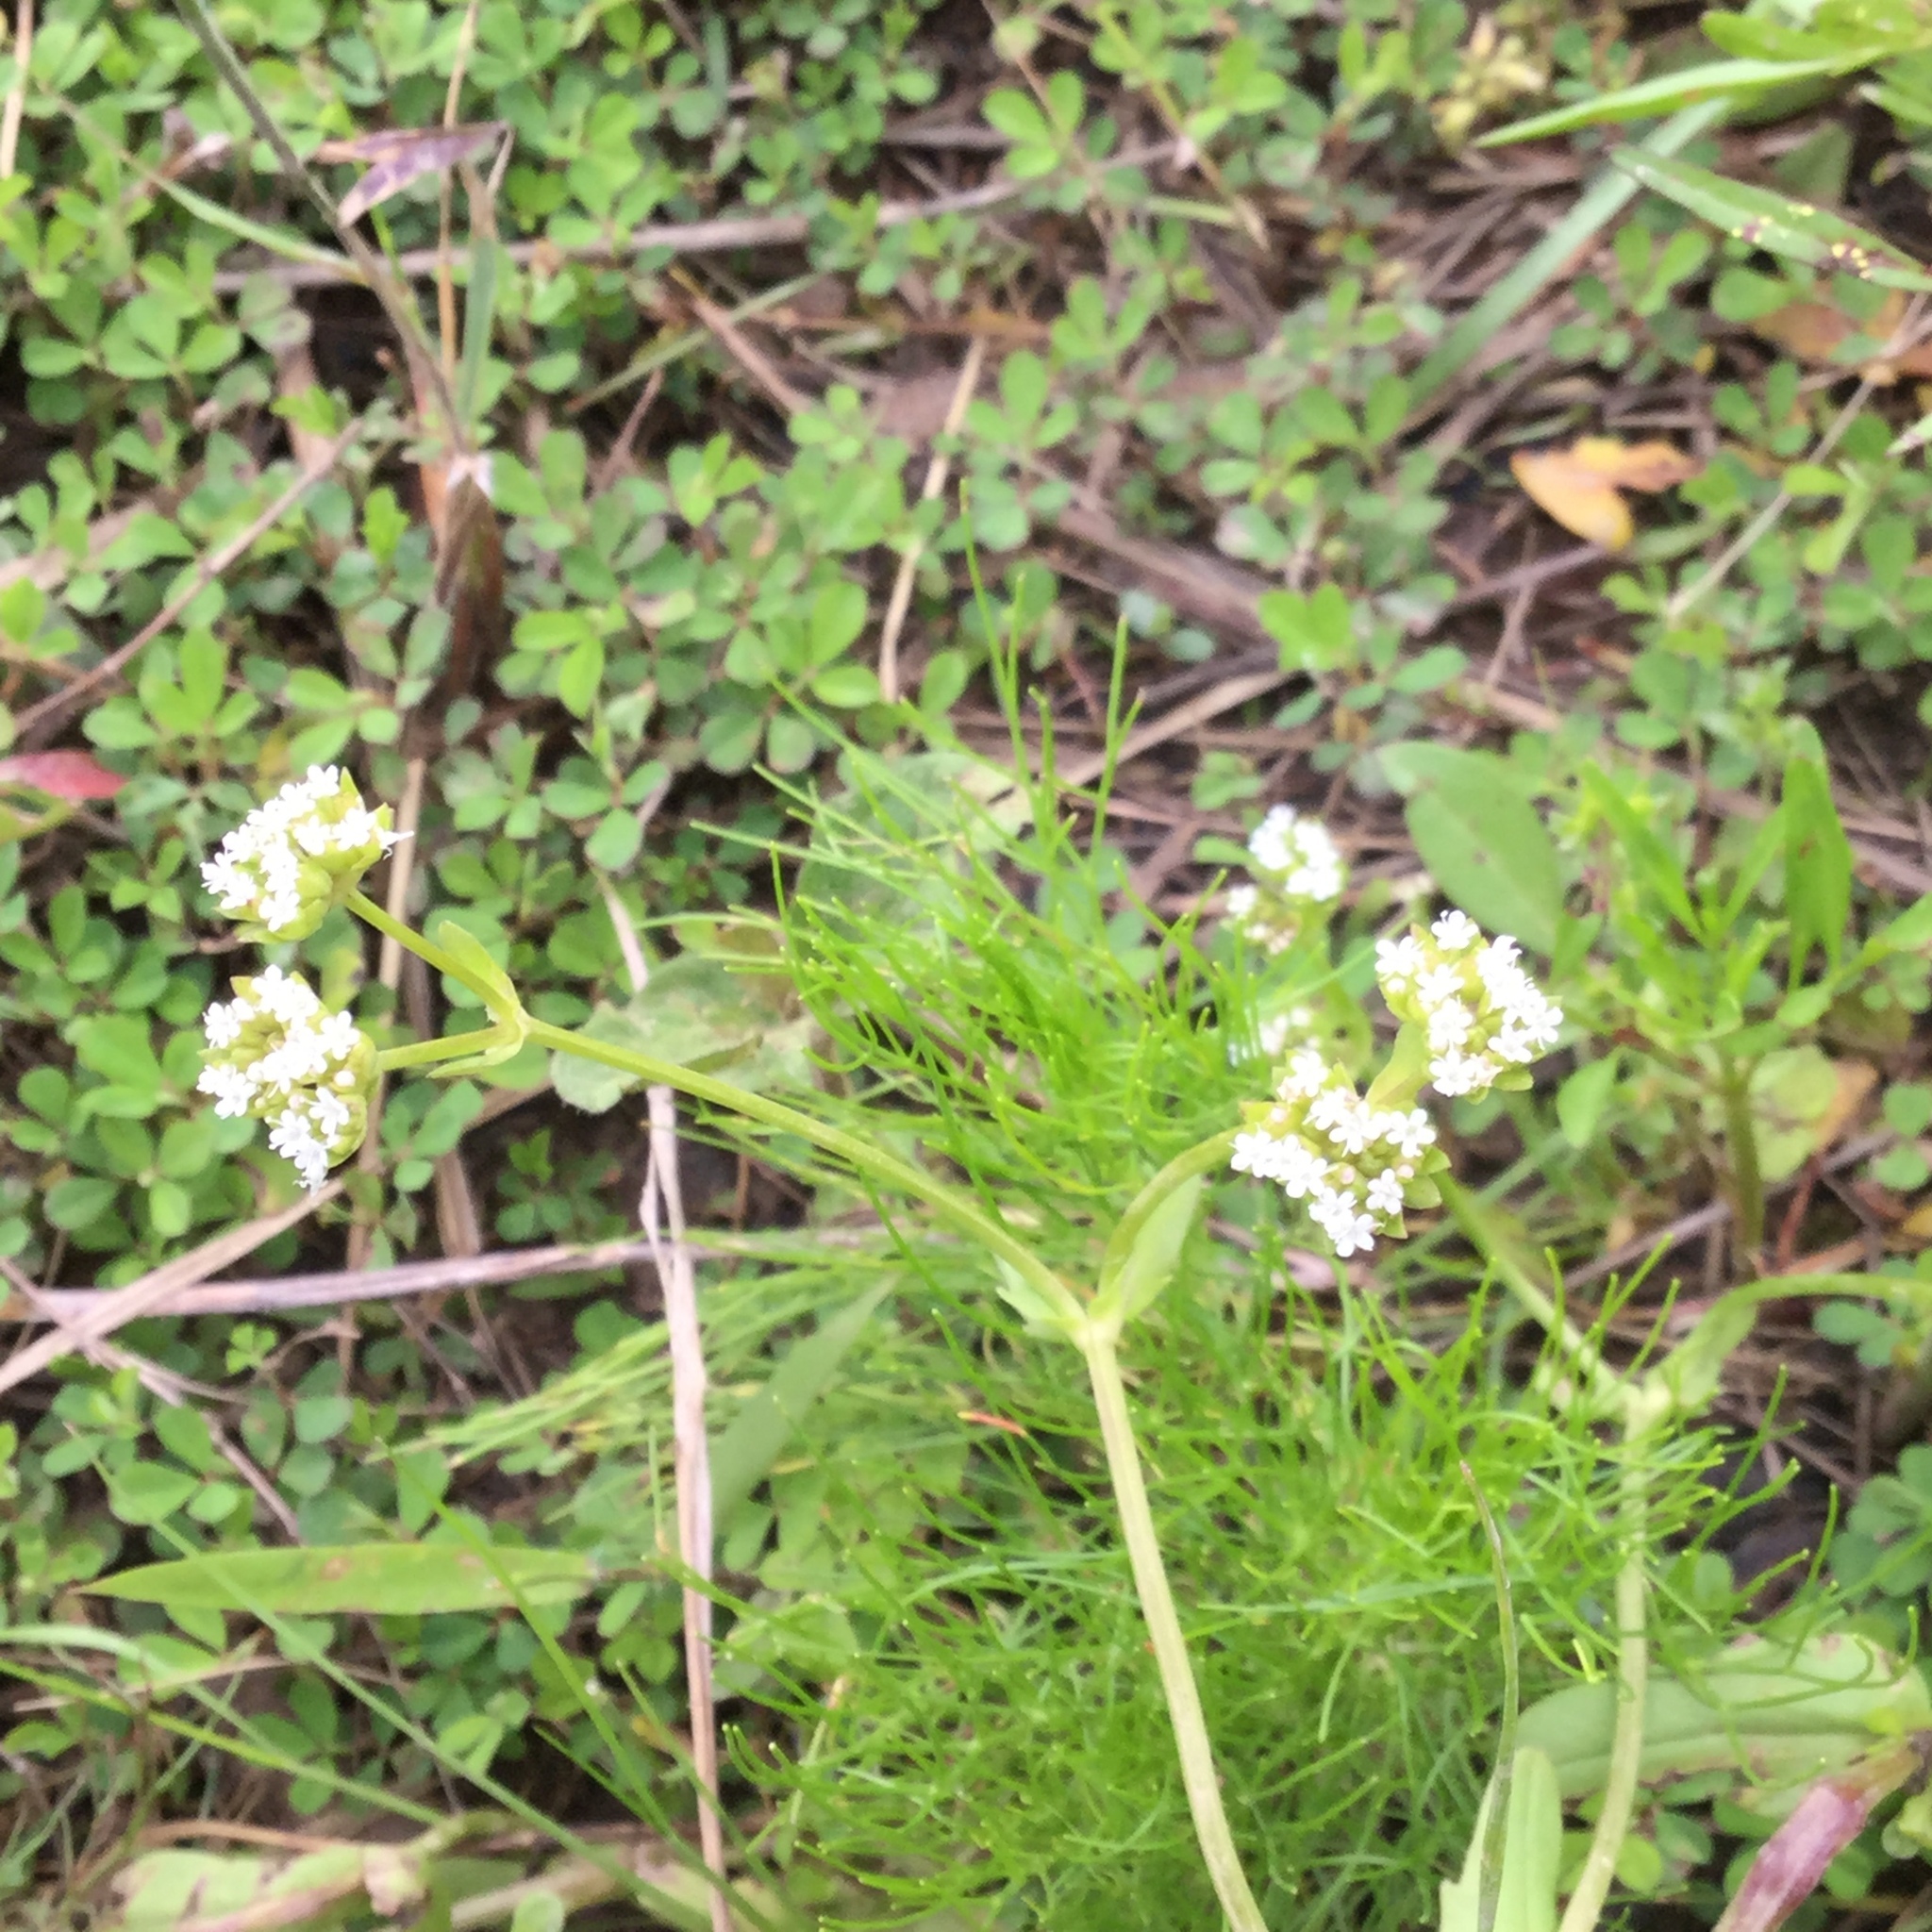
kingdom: Plantae
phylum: Tracheophyta
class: Magnoliopsida
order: Dipsacales
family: Caprifoliaceae
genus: Valerianella
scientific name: Valerianella radiata
